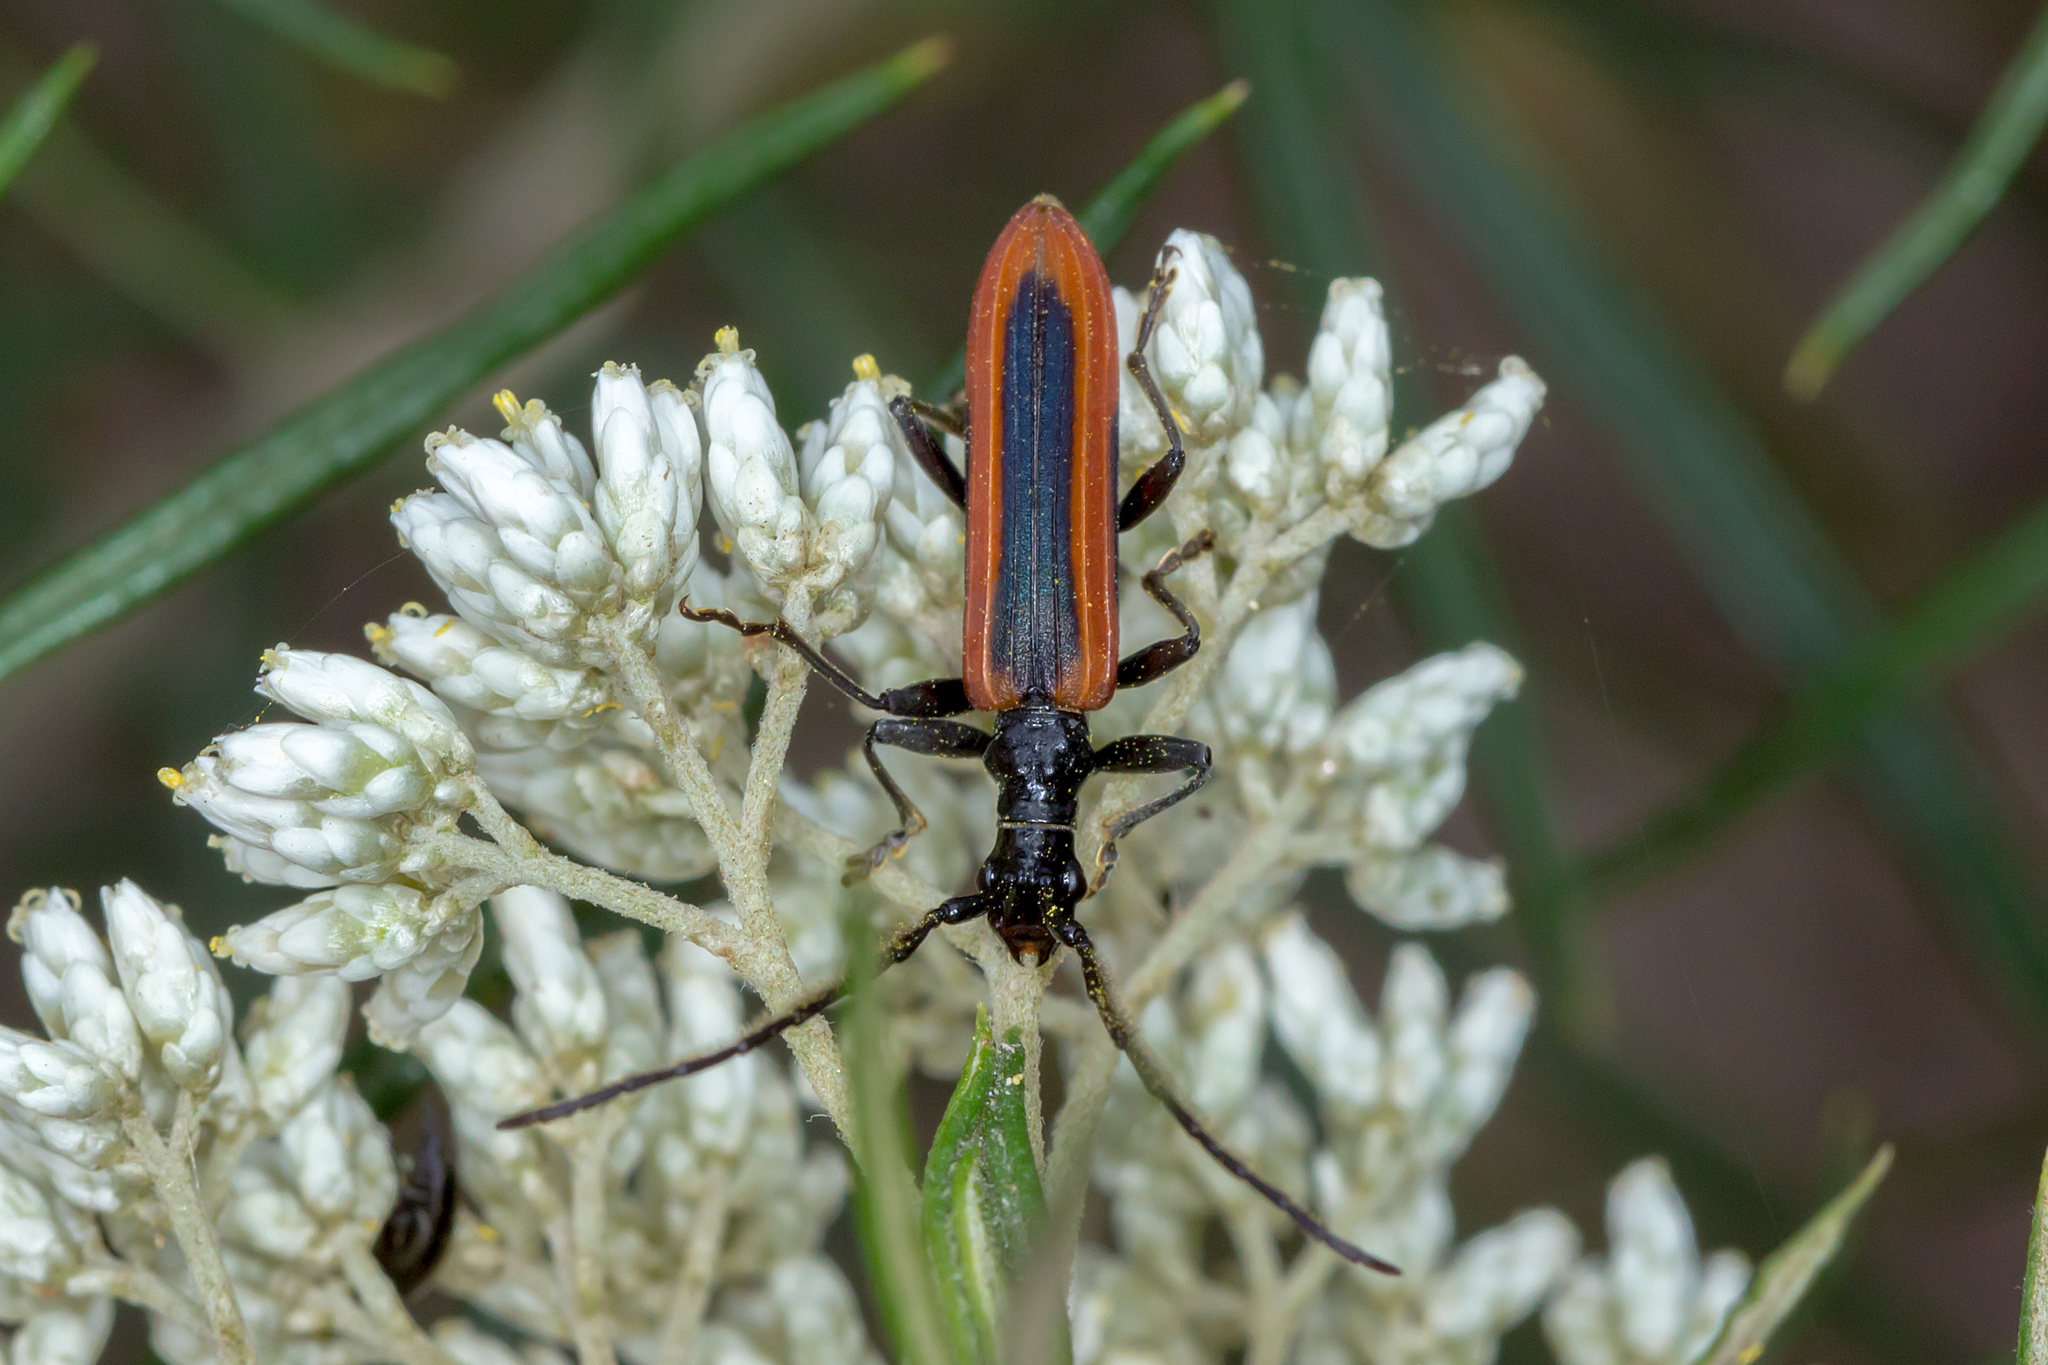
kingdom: Animalia
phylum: Arthropoda
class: Insecta
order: Coleoptera
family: Cerambycidae
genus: Stenoderus
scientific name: Stenoderus suturalis
